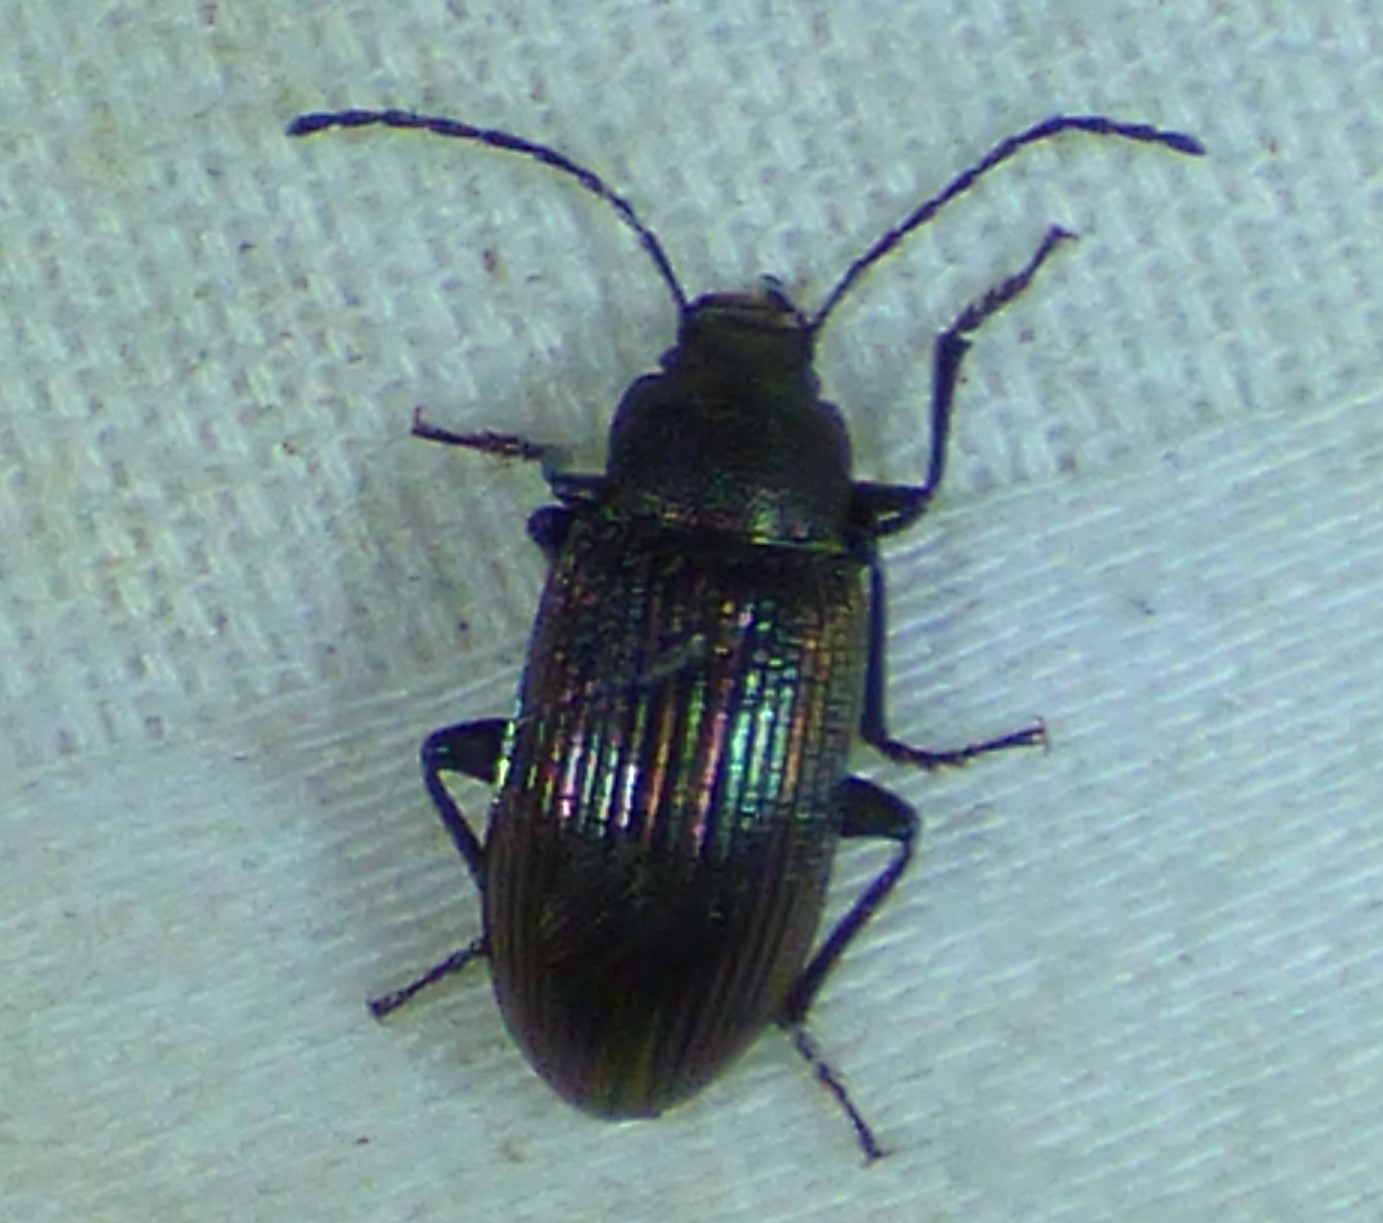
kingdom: Animalia
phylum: Arthropoda
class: Insecta
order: Coleoptera
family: Tenebrionidae
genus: Tarpela
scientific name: Tarpela venusta
